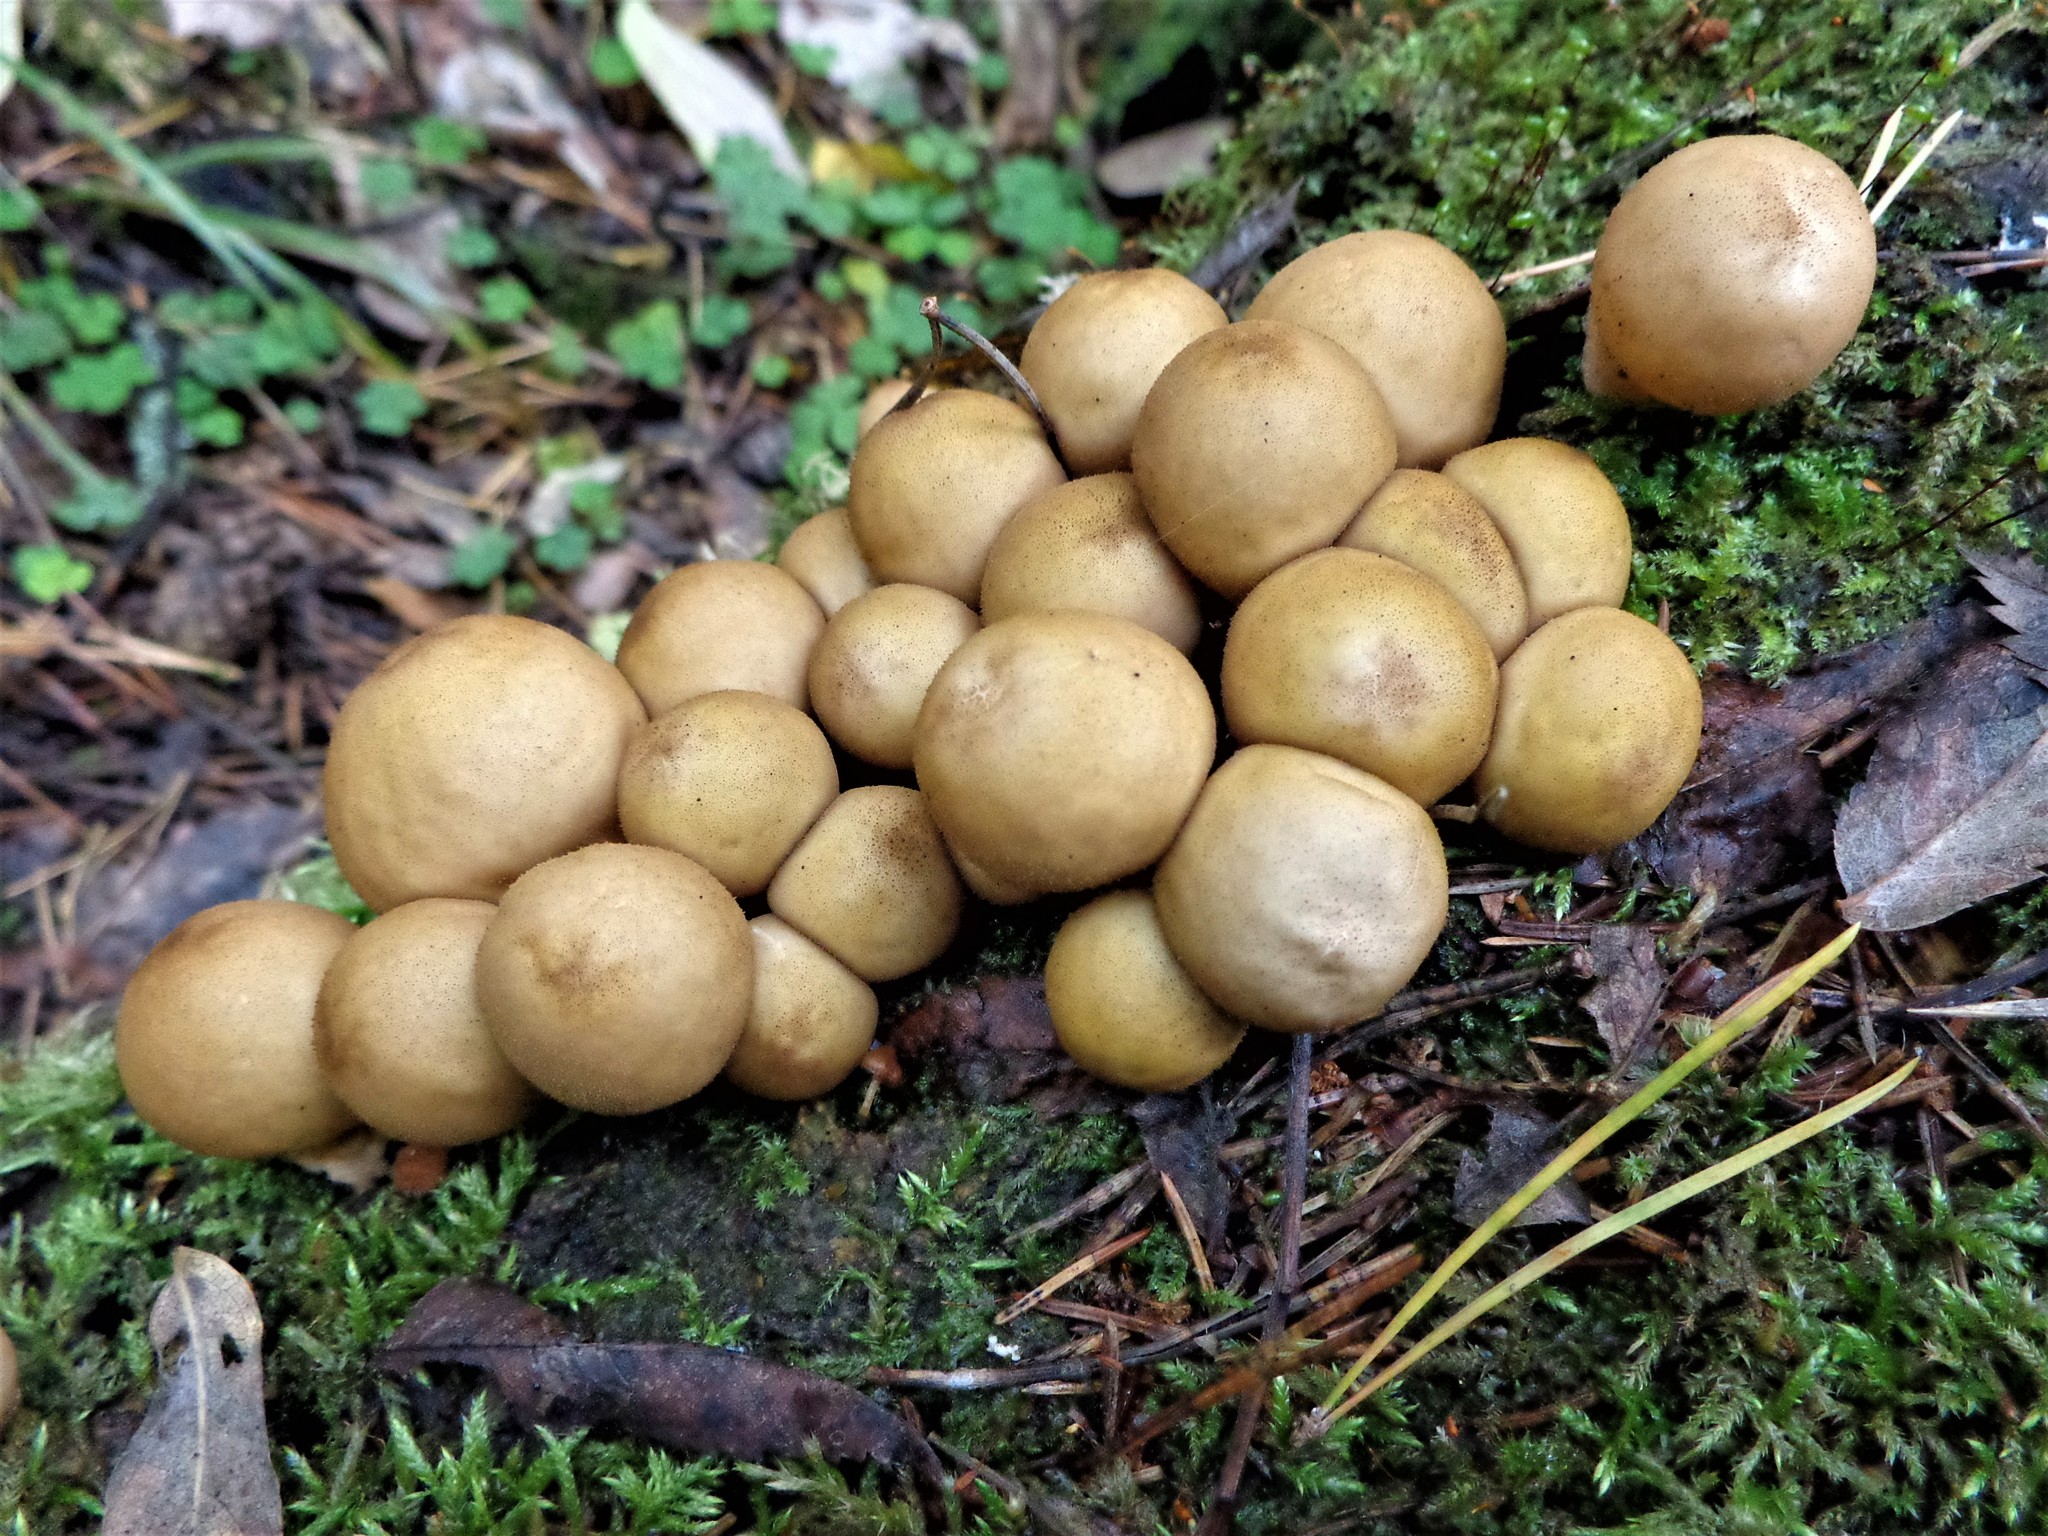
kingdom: Fungi
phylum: Basidiomycota
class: Agaricomycetes
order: Agaricales
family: Lycoperdaceae
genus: Apioperdon
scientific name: Apioperdon pyriforme
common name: Pear-shaped puffball
